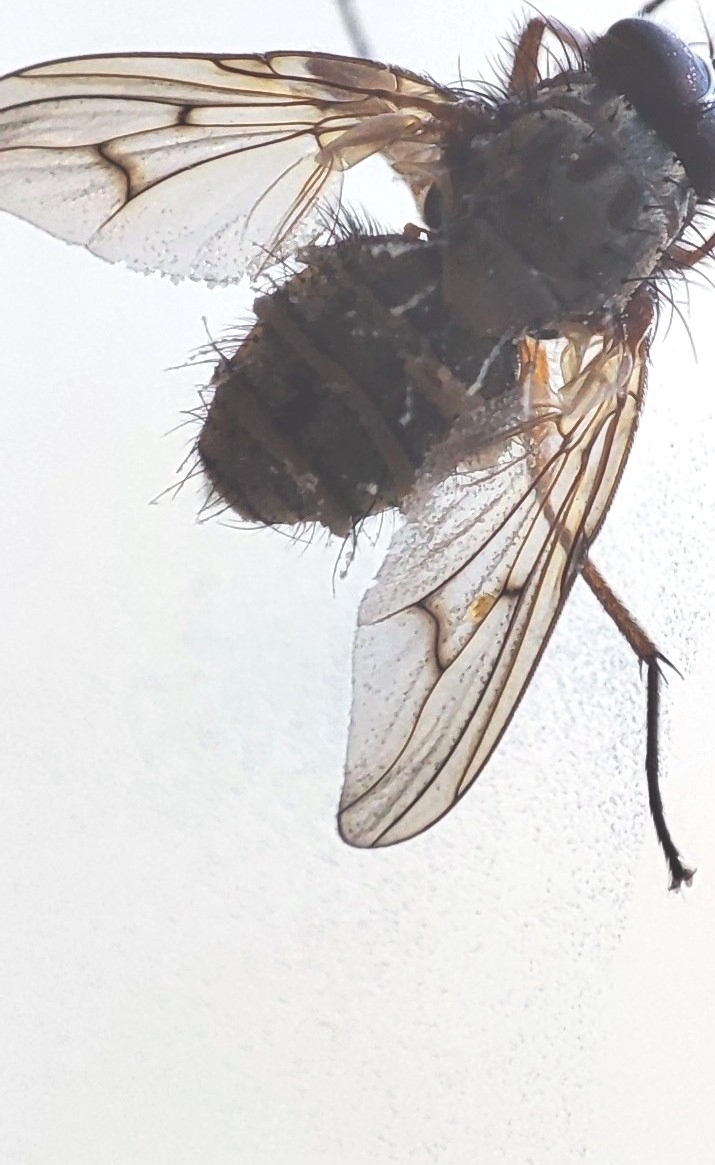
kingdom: Fungi
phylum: Entomophthoromycota
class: Entomophthoromycetes
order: Entomophthorales
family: Entomophthoraceae
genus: Entomophthora
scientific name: Entomophthora
